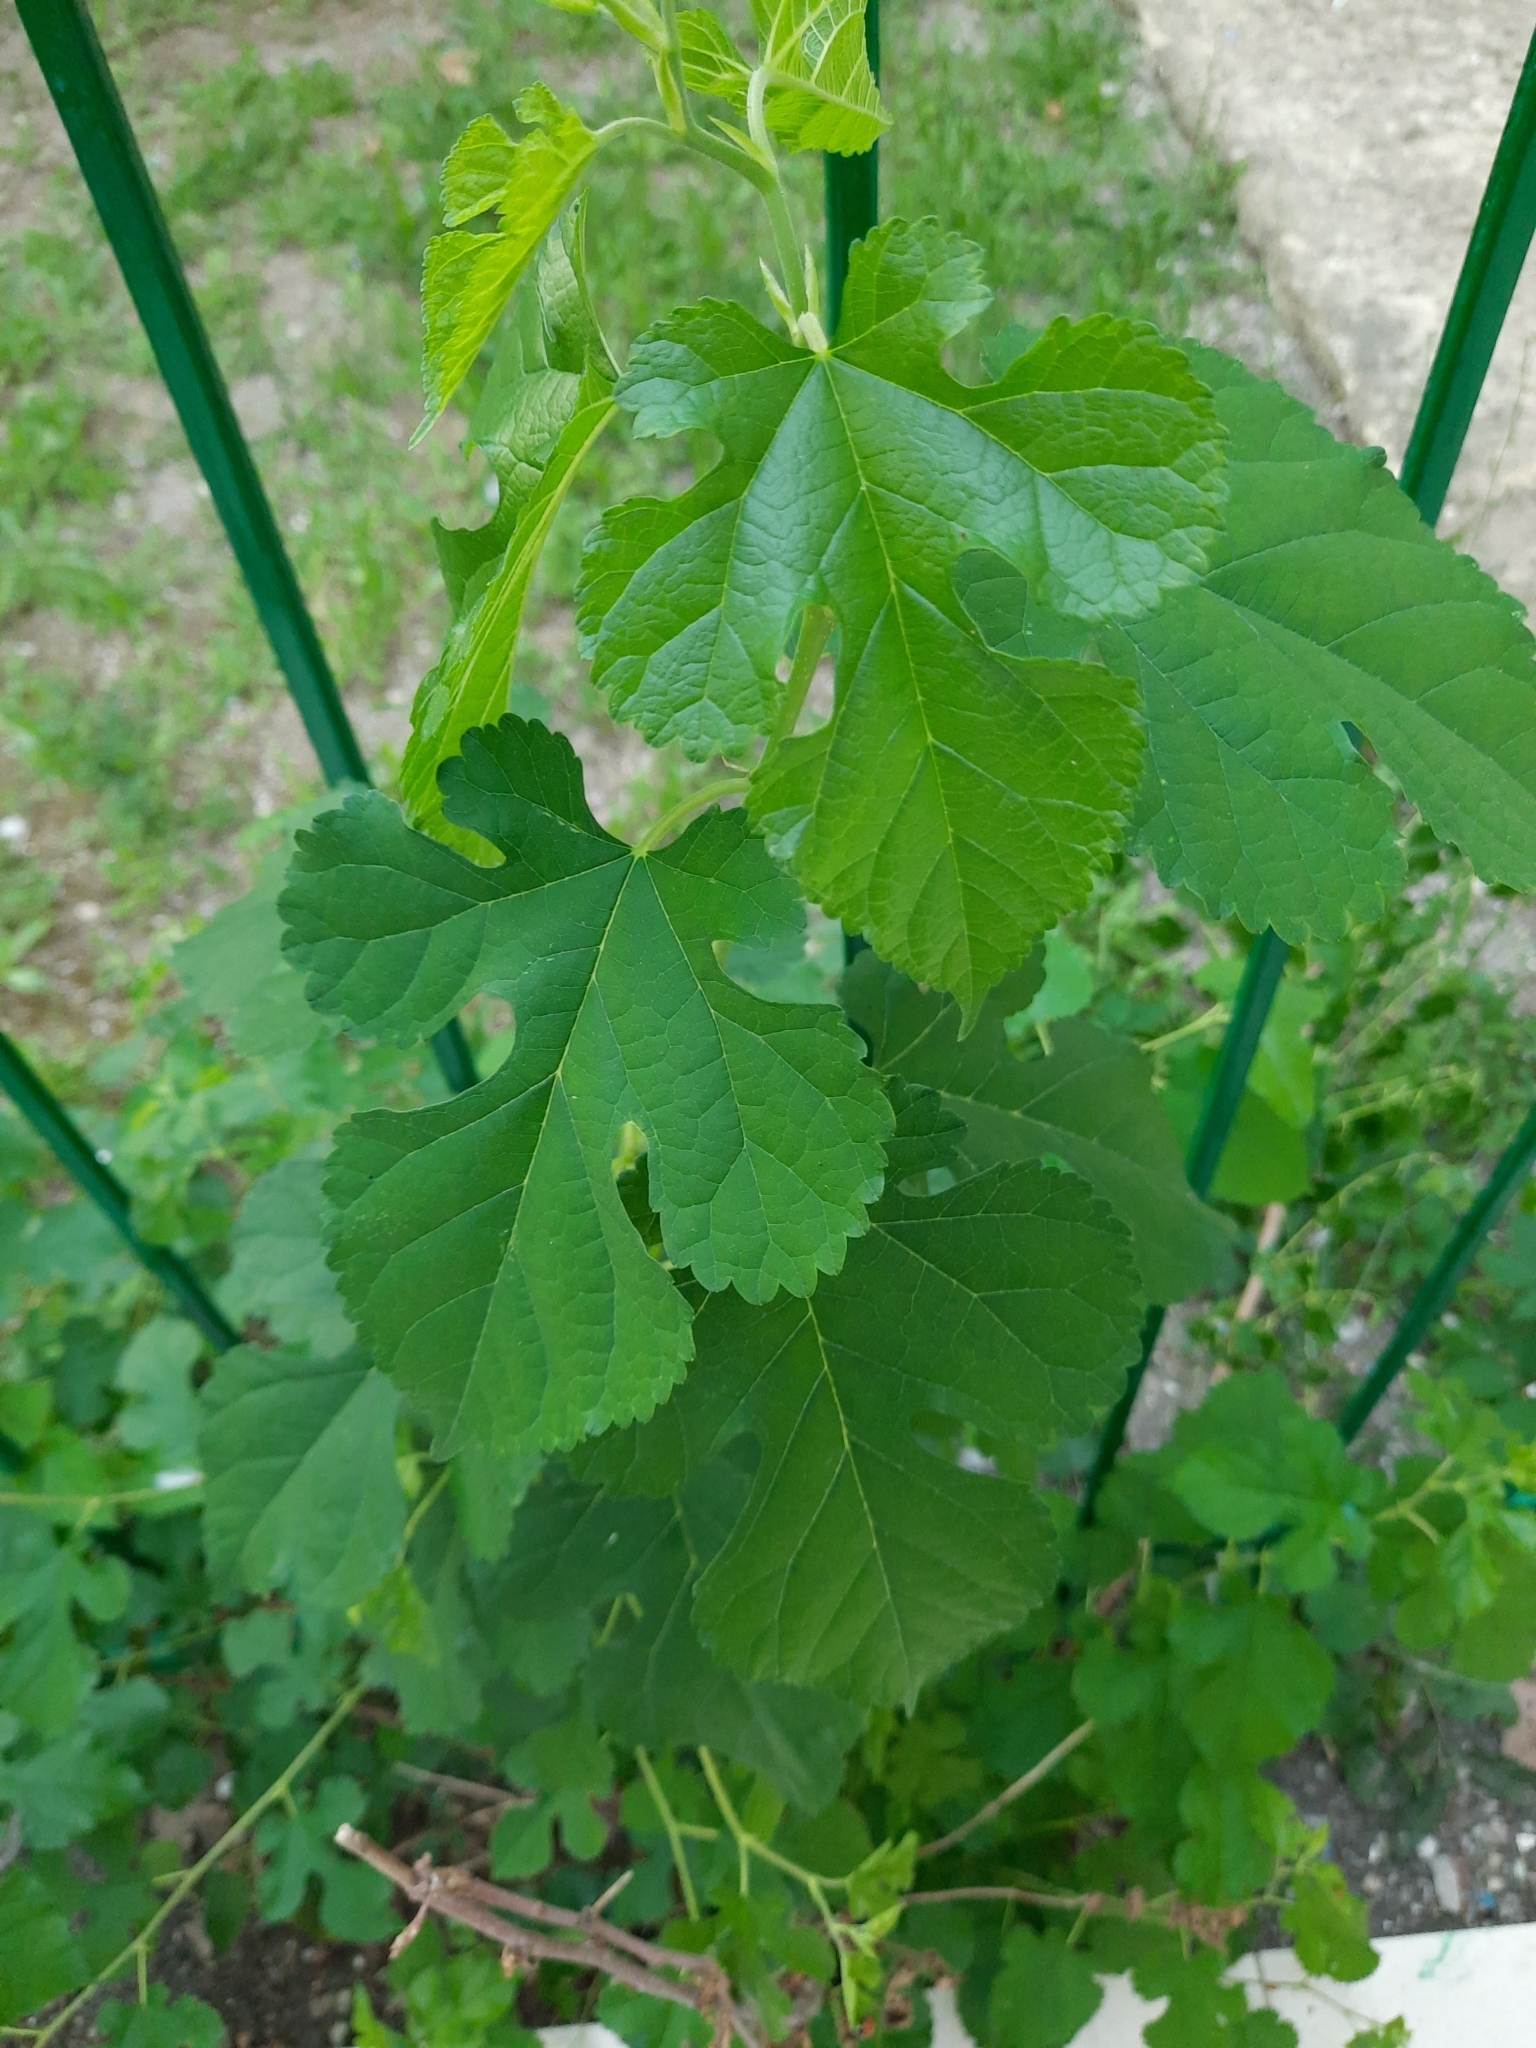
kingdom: Plantae
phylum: Tracheophyta
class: Magnoliopsida
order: Rosales
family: Moraceae
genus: Morus
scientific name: Morus alba
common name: White mulberry
